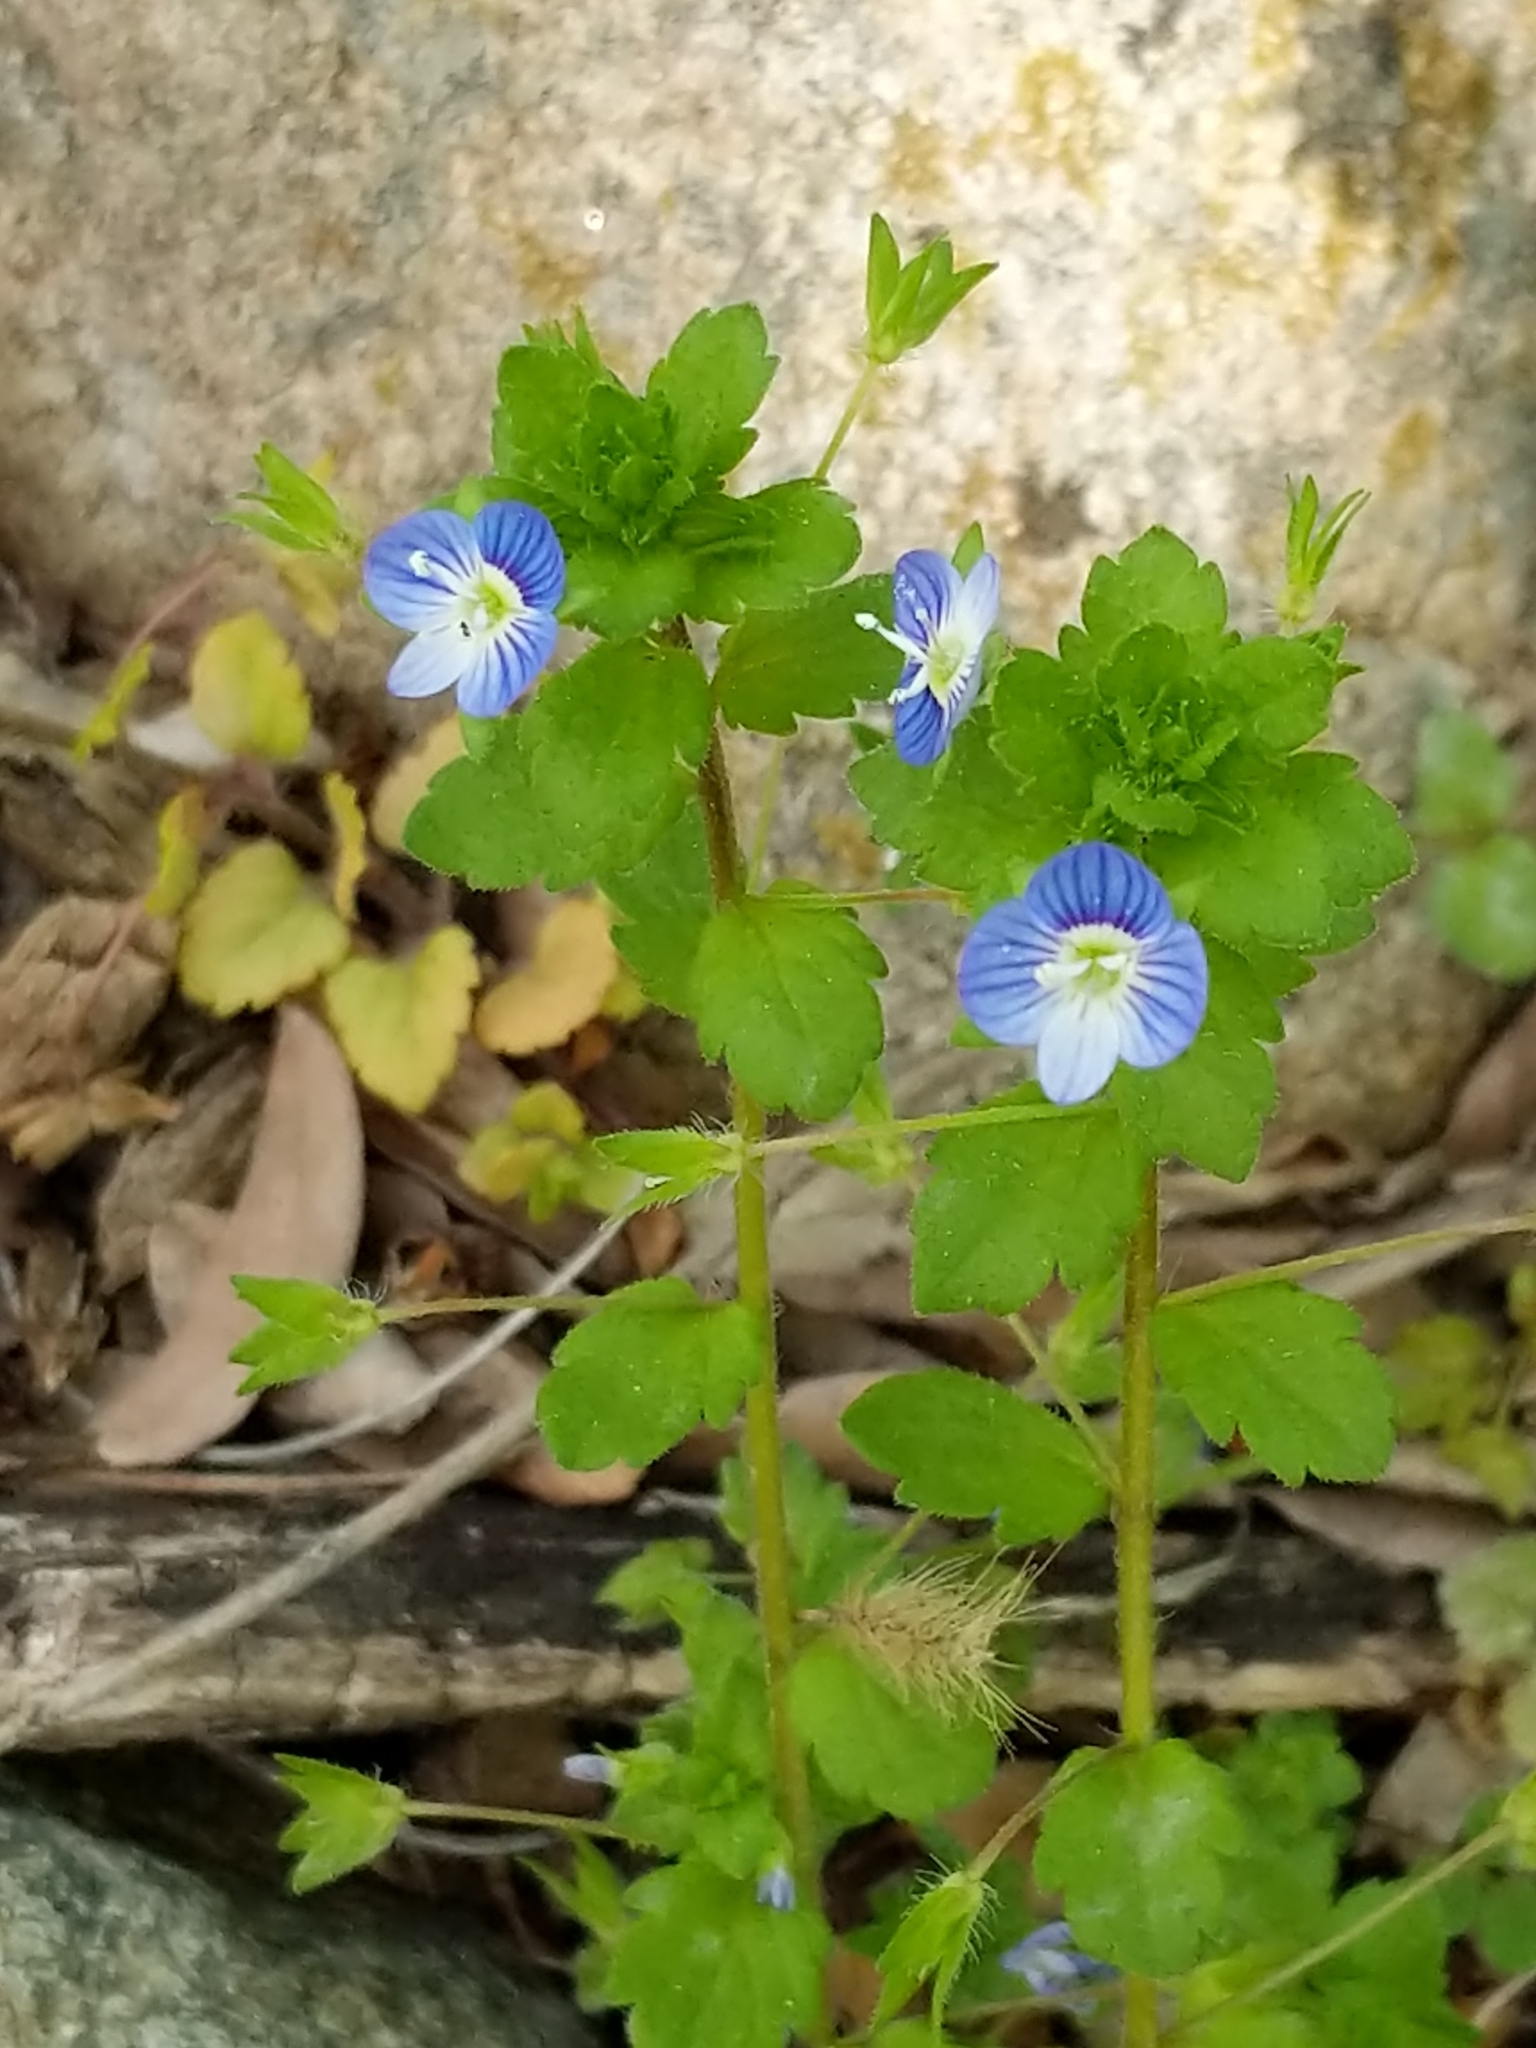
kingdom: Plantae
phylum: Tracheophyta
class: Magnoliopsida
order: Lamiales
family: Plantaginaceae
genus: Veronica
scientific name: Veronica persica
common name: Common field-speedwell
